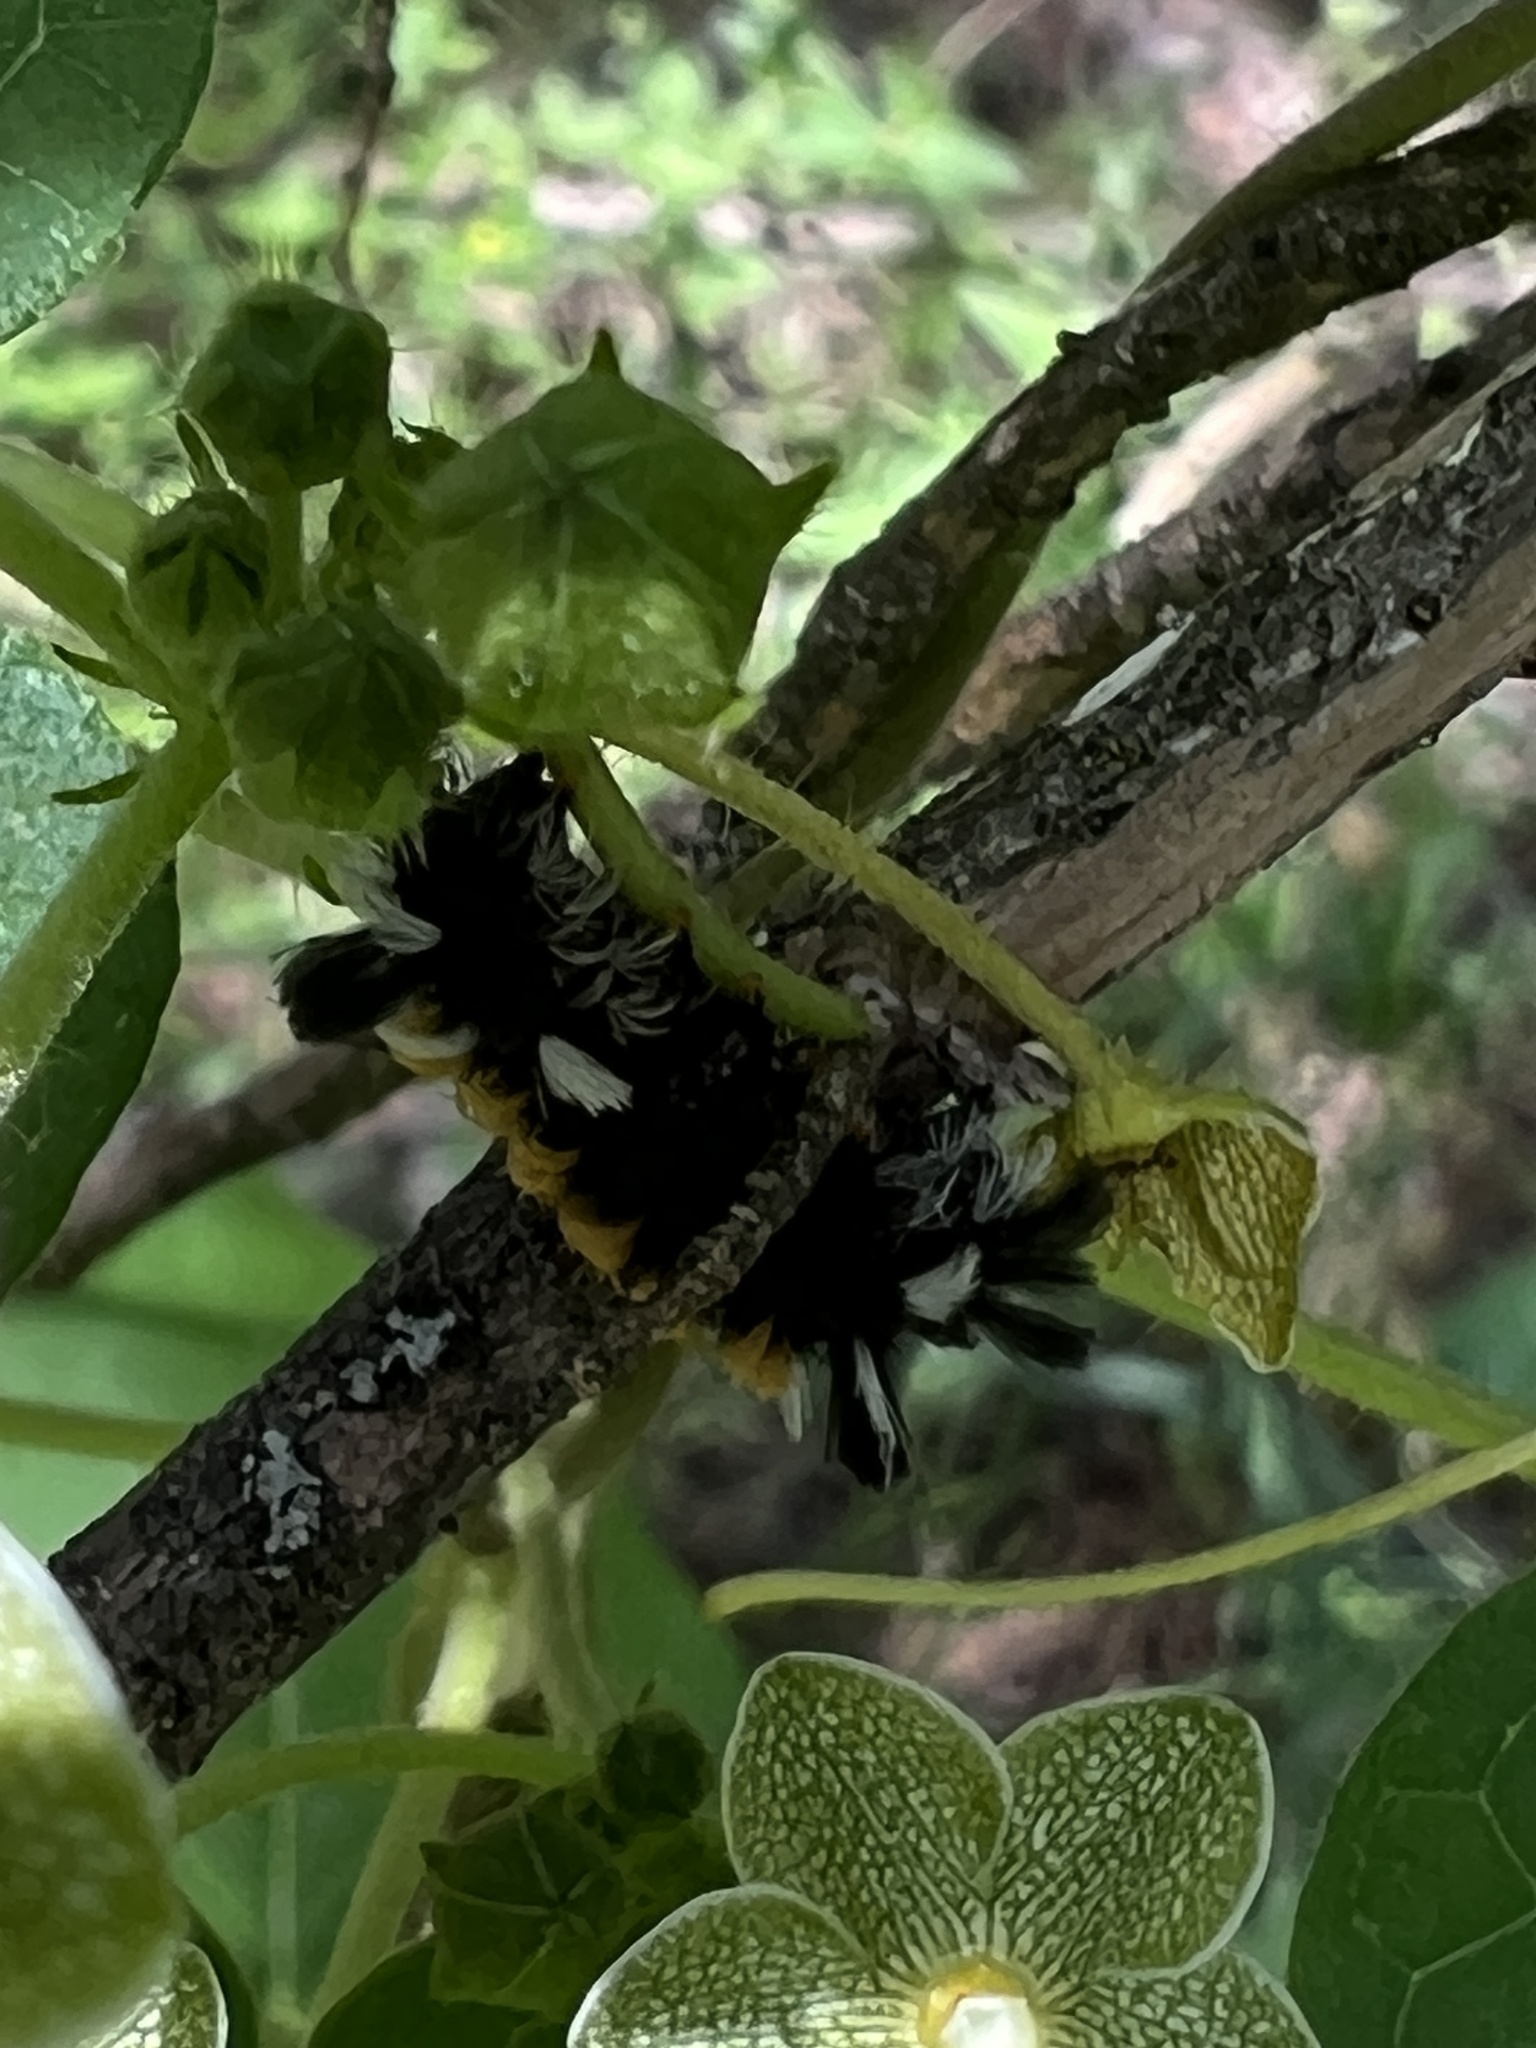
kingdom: Animalia
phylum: Arthropoda
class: Insecta
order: Lepidoptera
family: Erebidae
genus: Euchaetes
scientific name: Euchaetes egle
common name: Milkweed tussock moth
